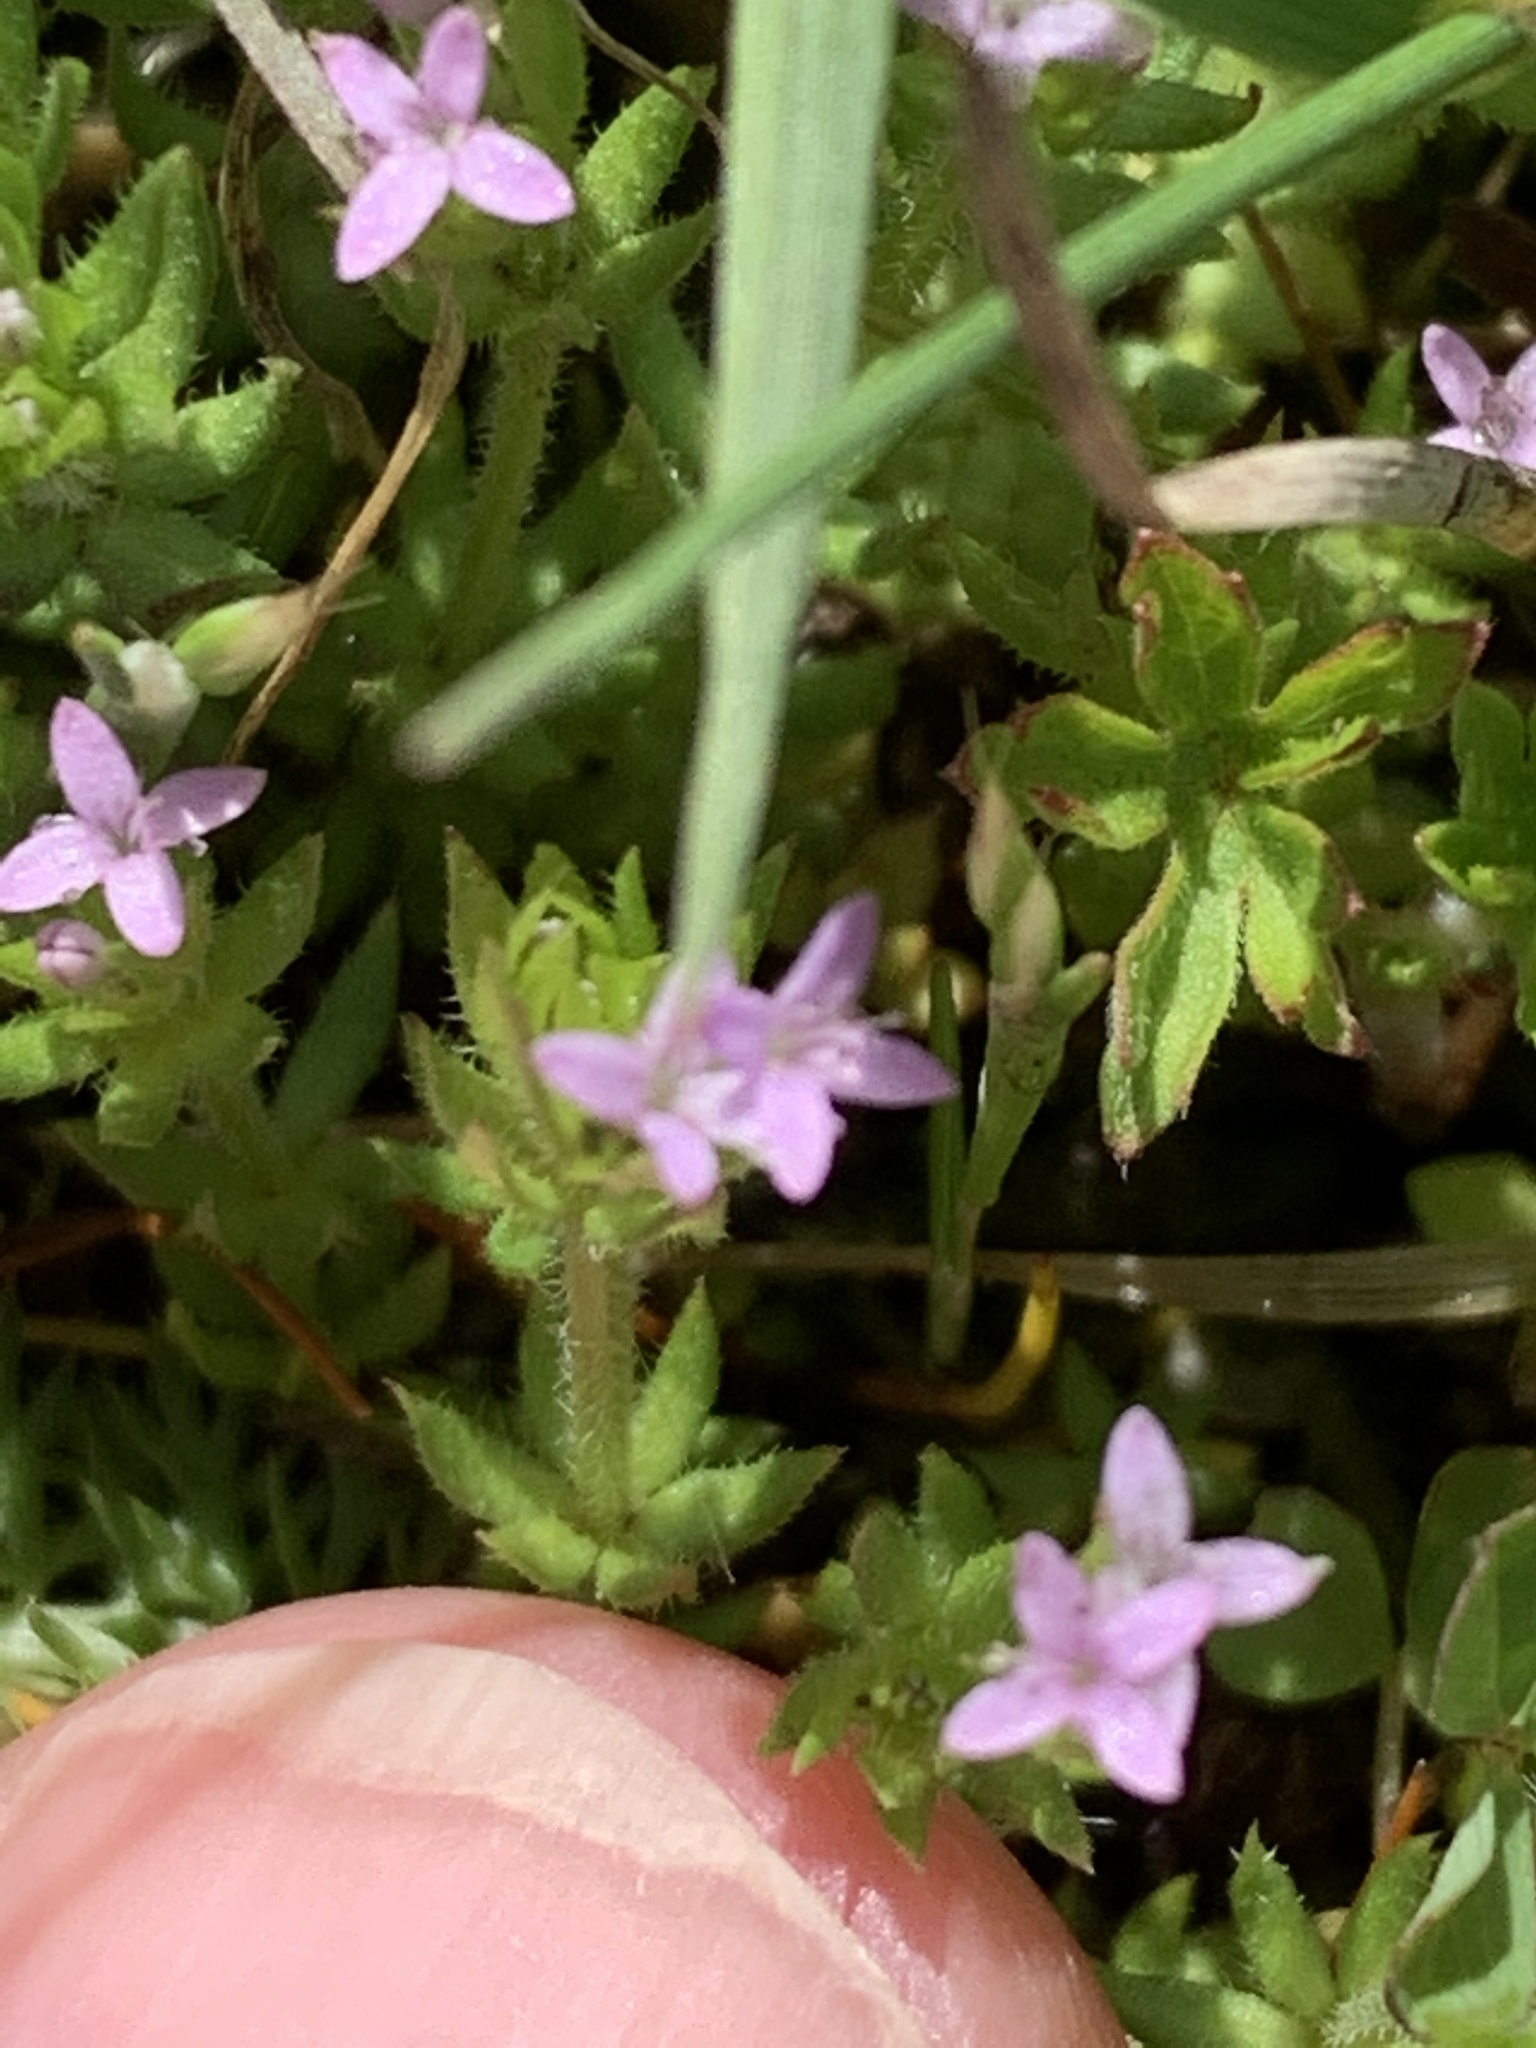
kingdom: Plantae
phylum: Tracheophyta
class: Magnoliopsida
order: Gentianales
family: Rubiaceae
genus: Sherardia
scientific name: Sherardia arvensis
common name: Field madder
